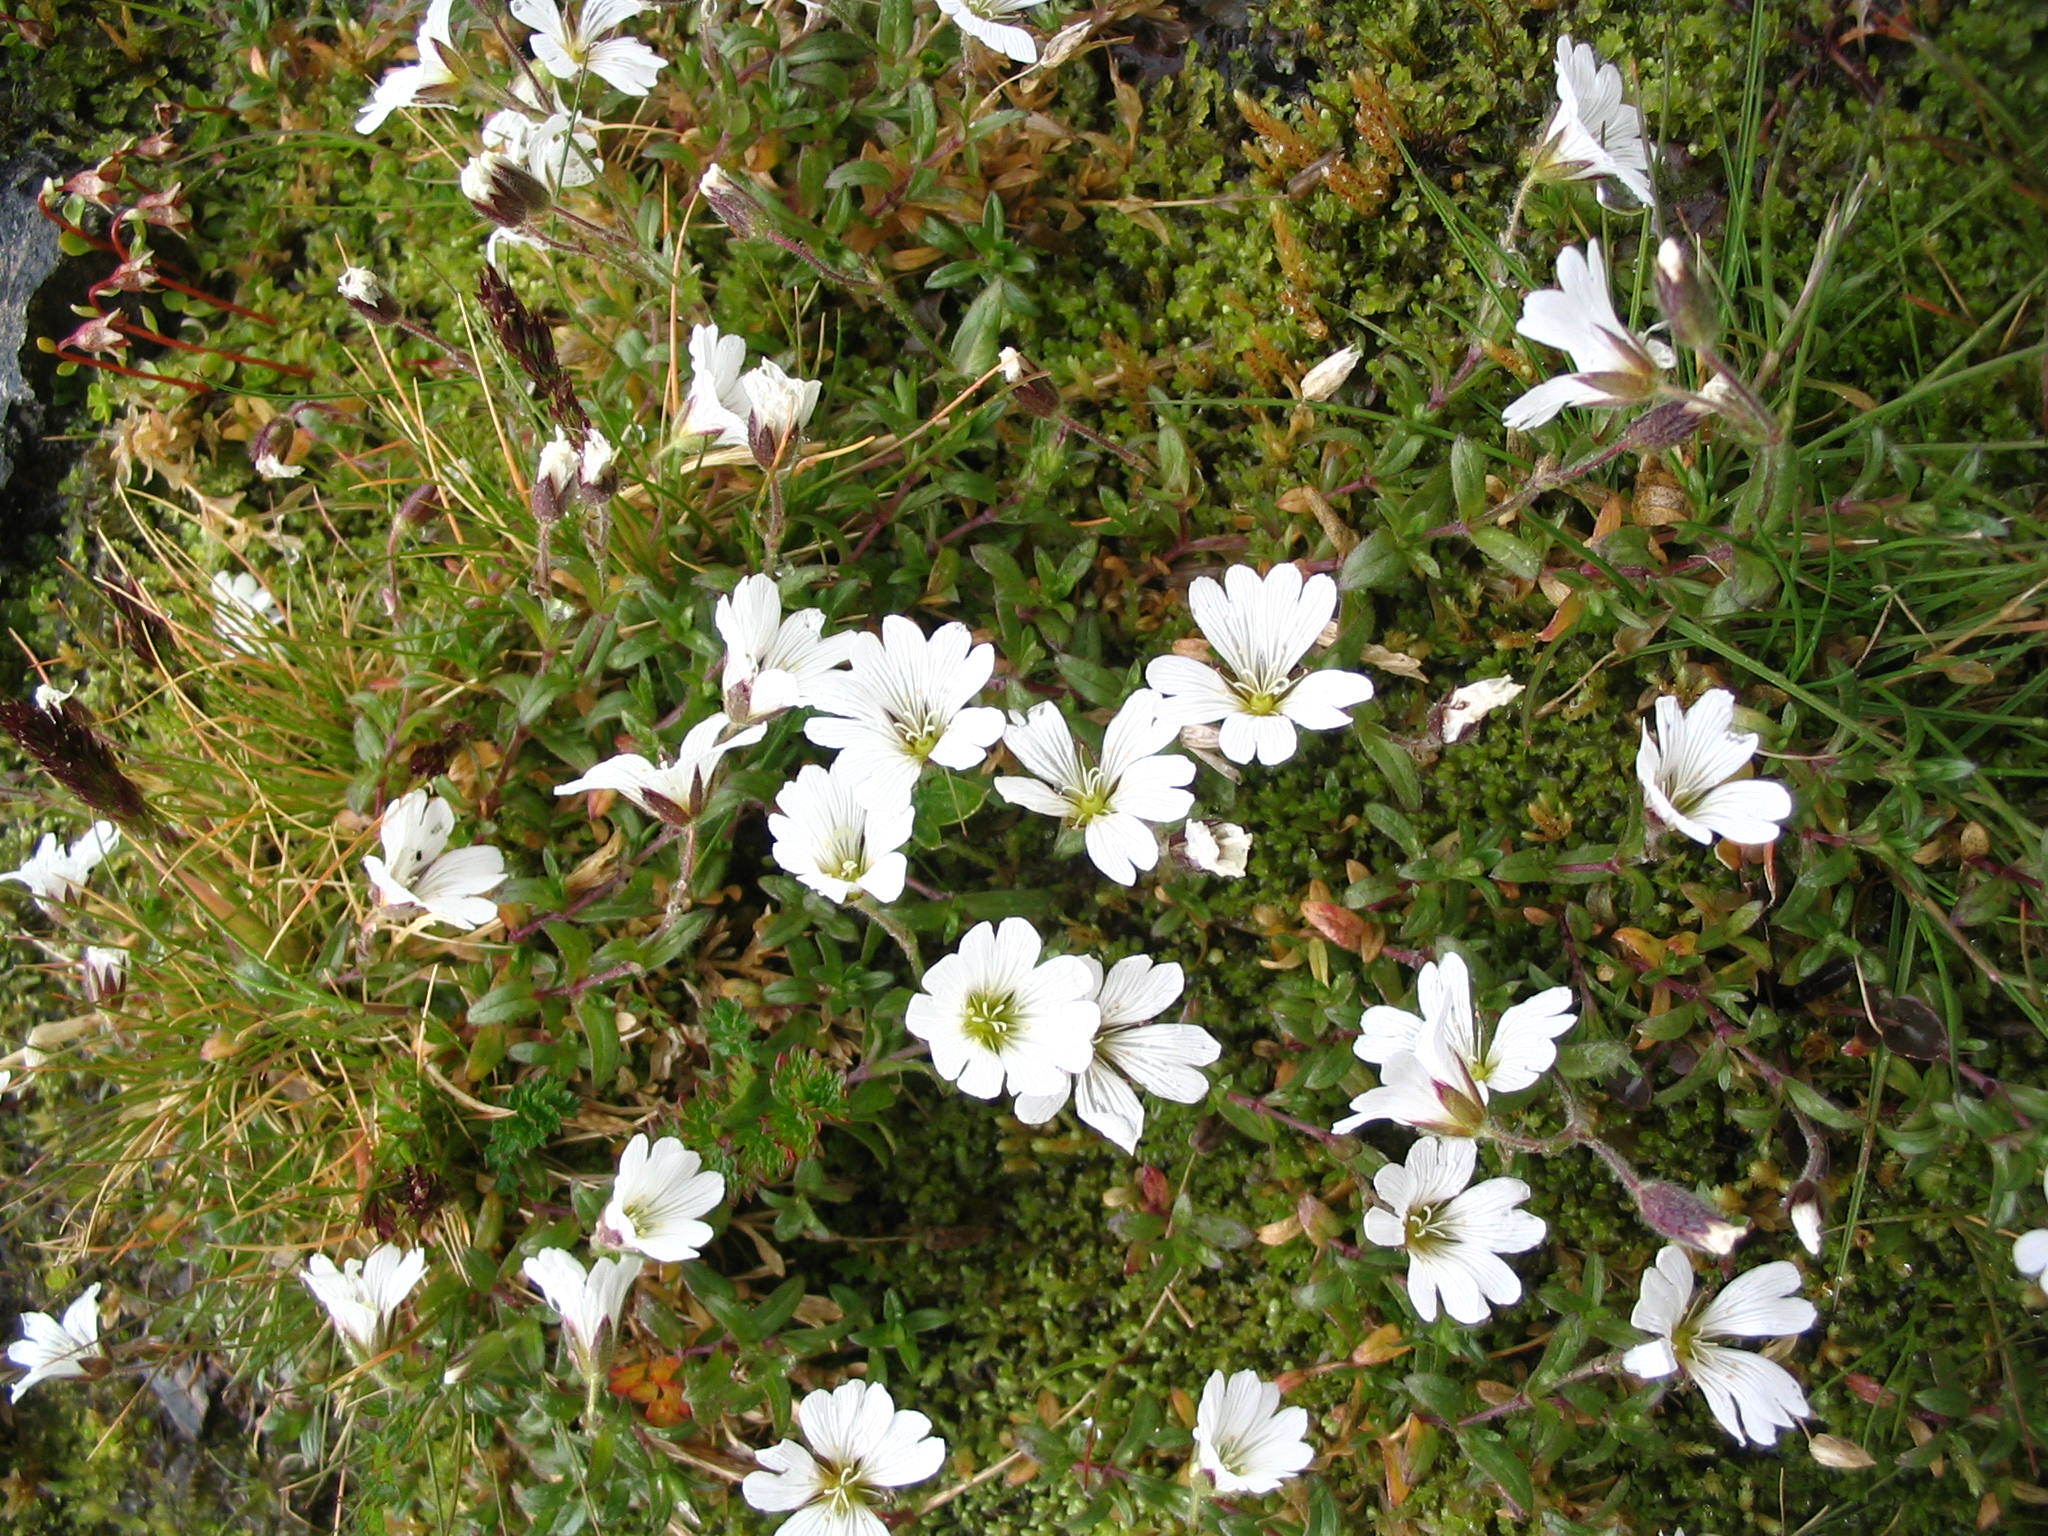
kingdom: Plantae
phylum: Tracheophyta
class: Magnoliopsida
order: Caryophyllales
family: Caryophyllaceae
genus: Cerastium
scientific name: Cerastium arvense
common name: Field mouse-ear
